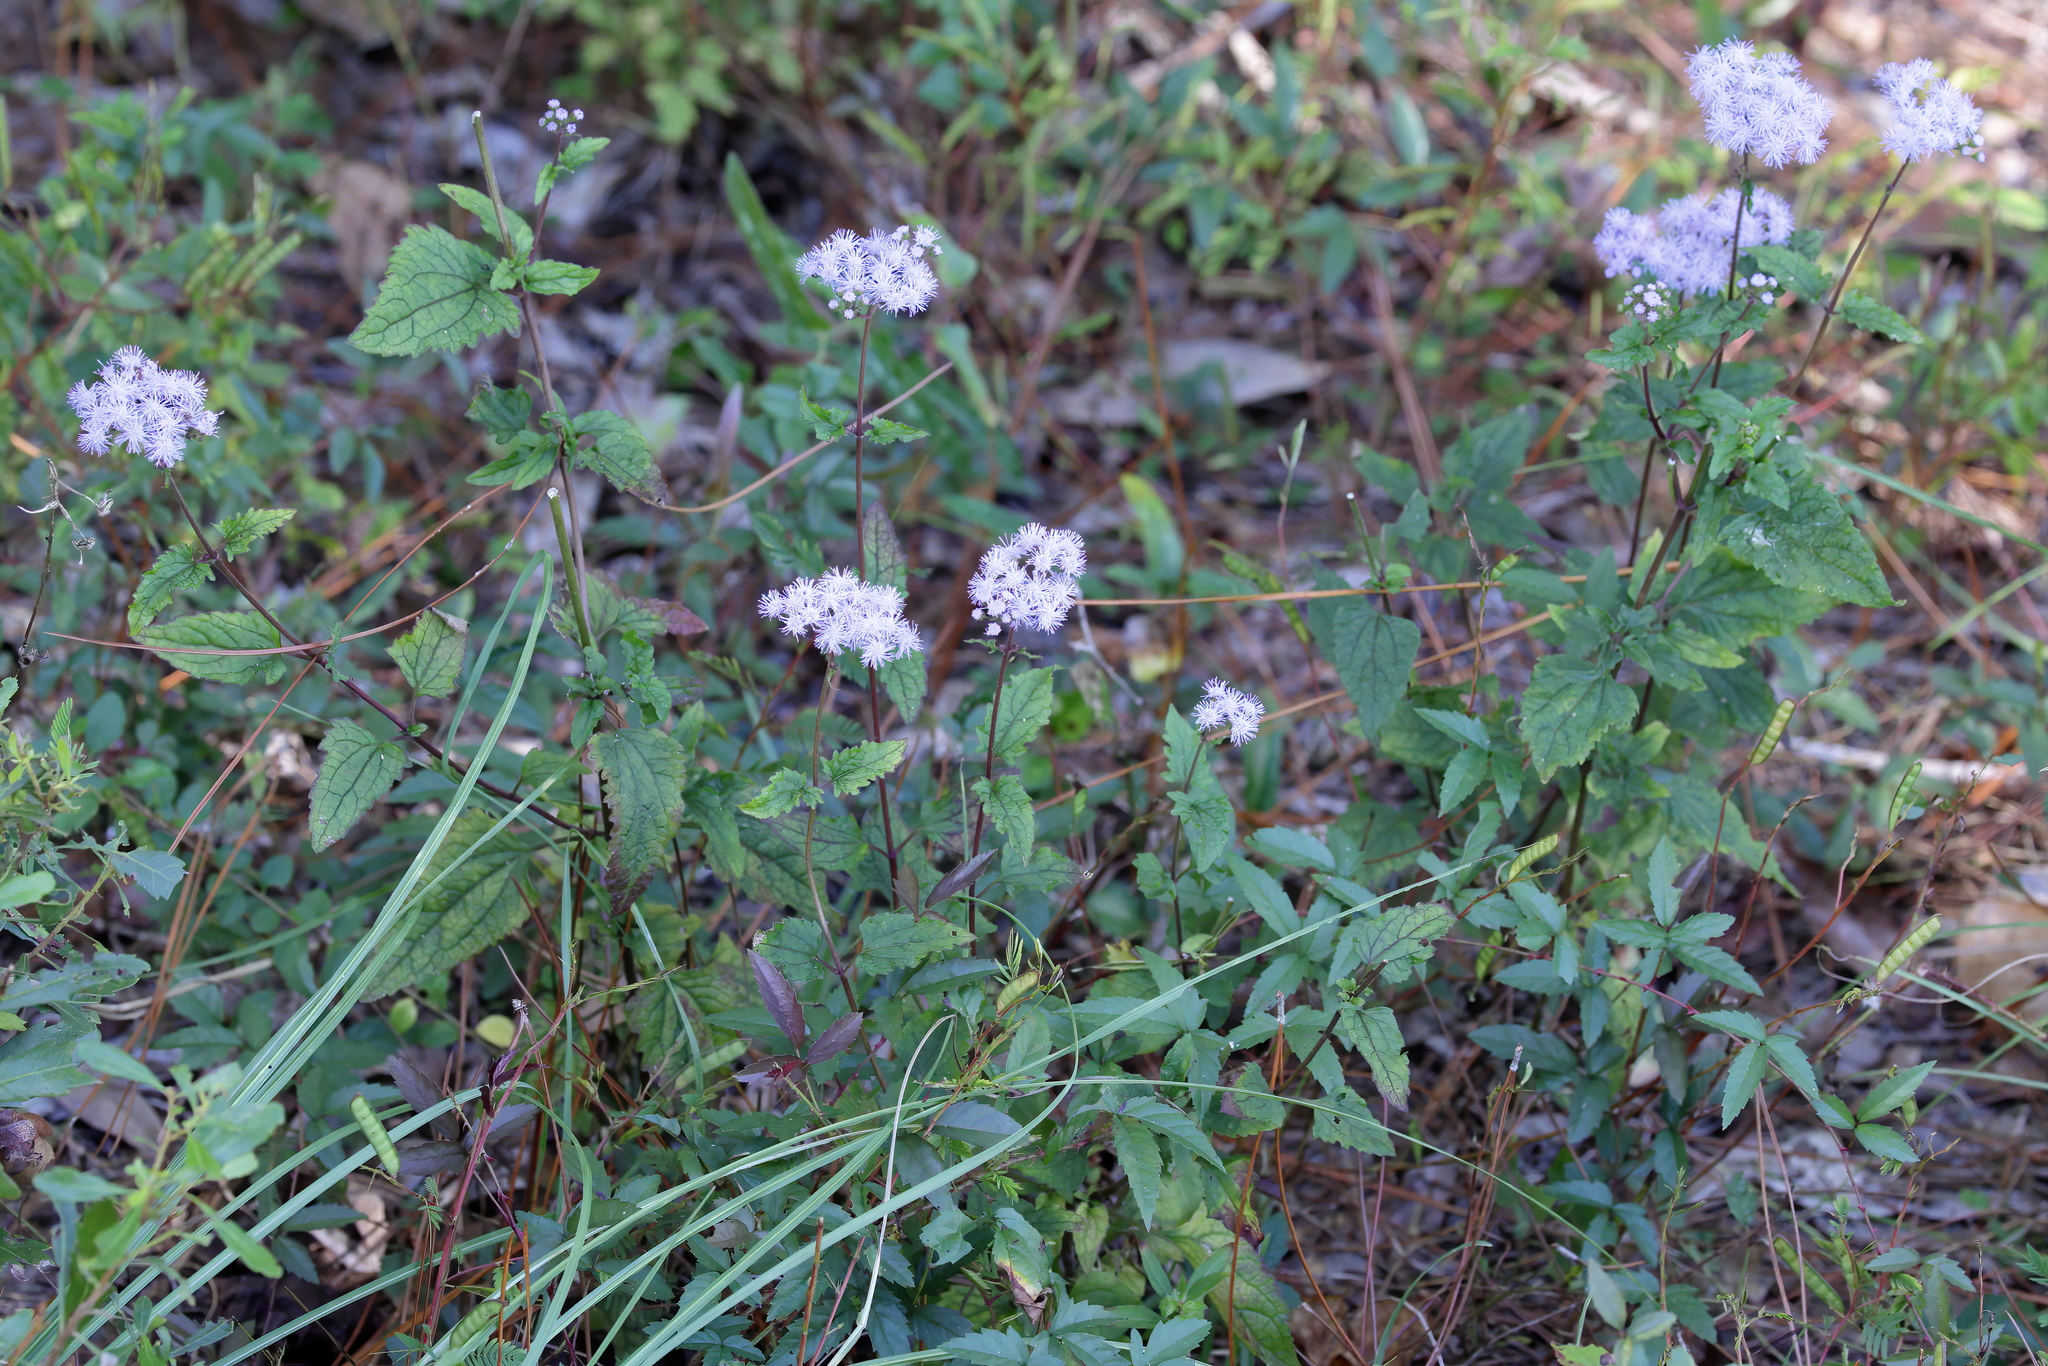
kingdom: Plantae
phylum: Tracheophyta
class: Magnoliopsida
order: Asterales
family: Asteraceae
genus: Conoclinium
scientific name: Conoclinium coelestinum
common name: Blue mistflower
